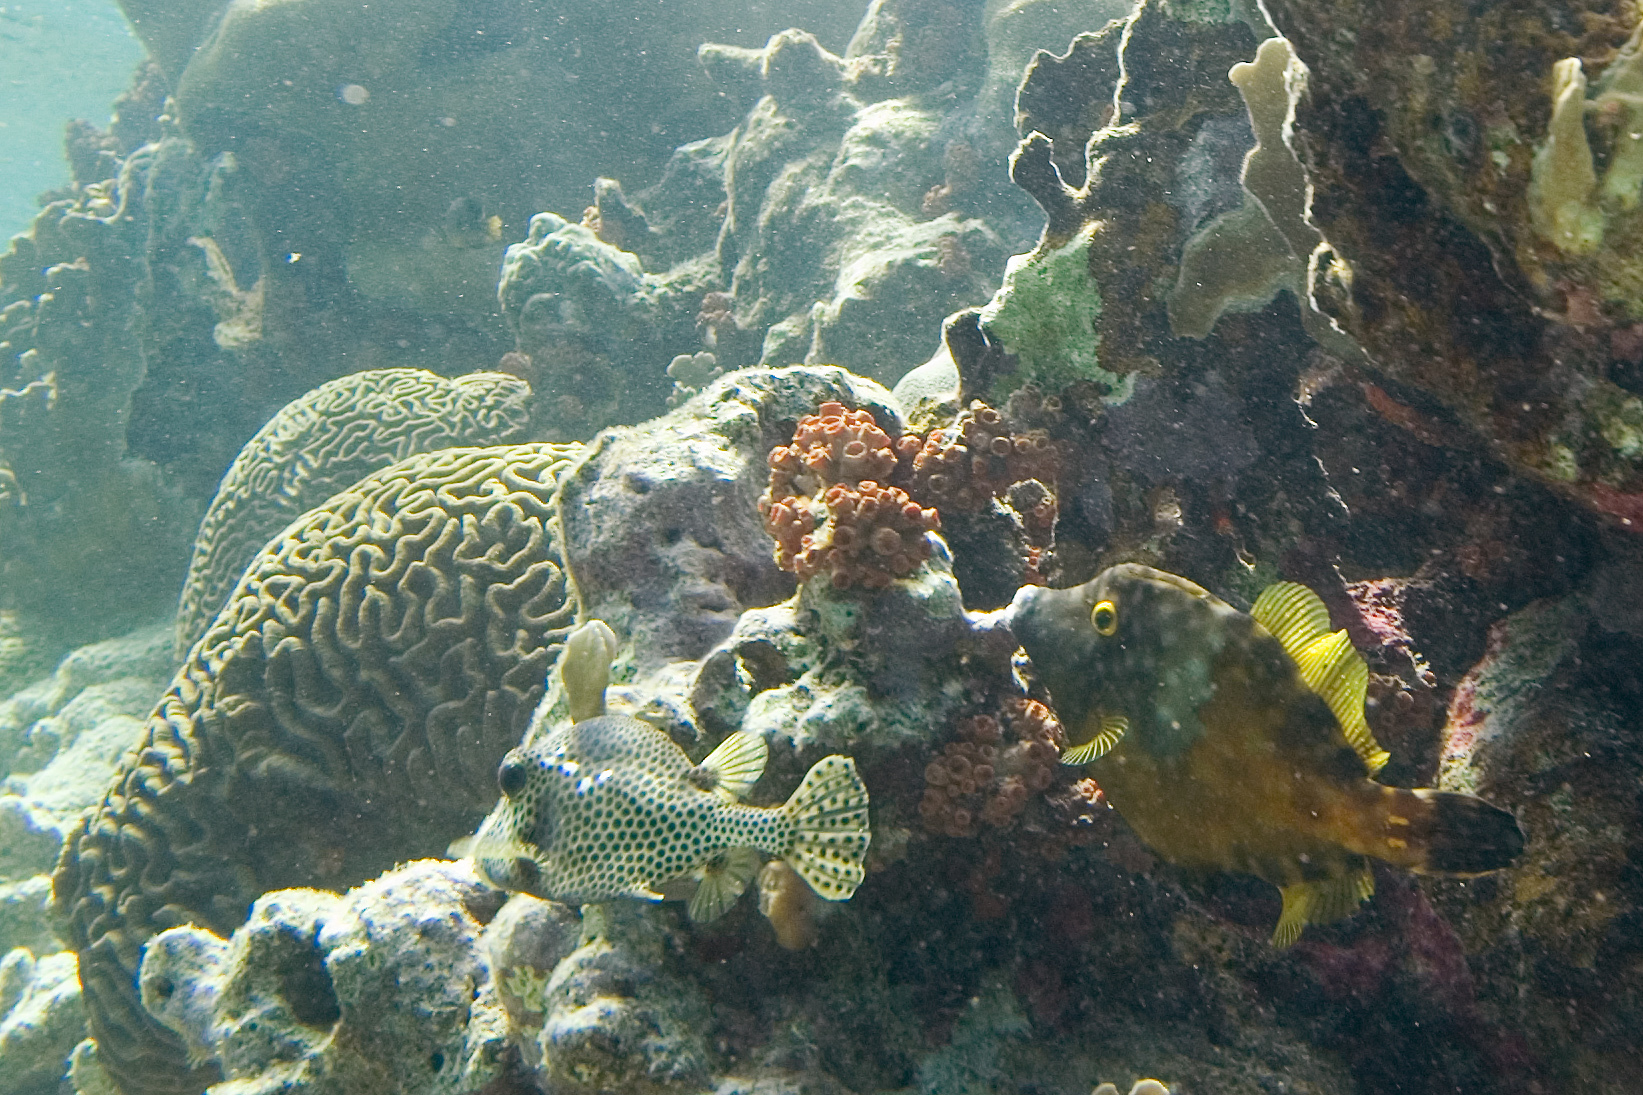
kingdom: Animalia
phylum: Chordata
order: Tetraodontiformes
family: Monacanthidae
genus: Cantherhines
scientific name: Cantherhines macrocerus
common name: Whitespotted filefish
